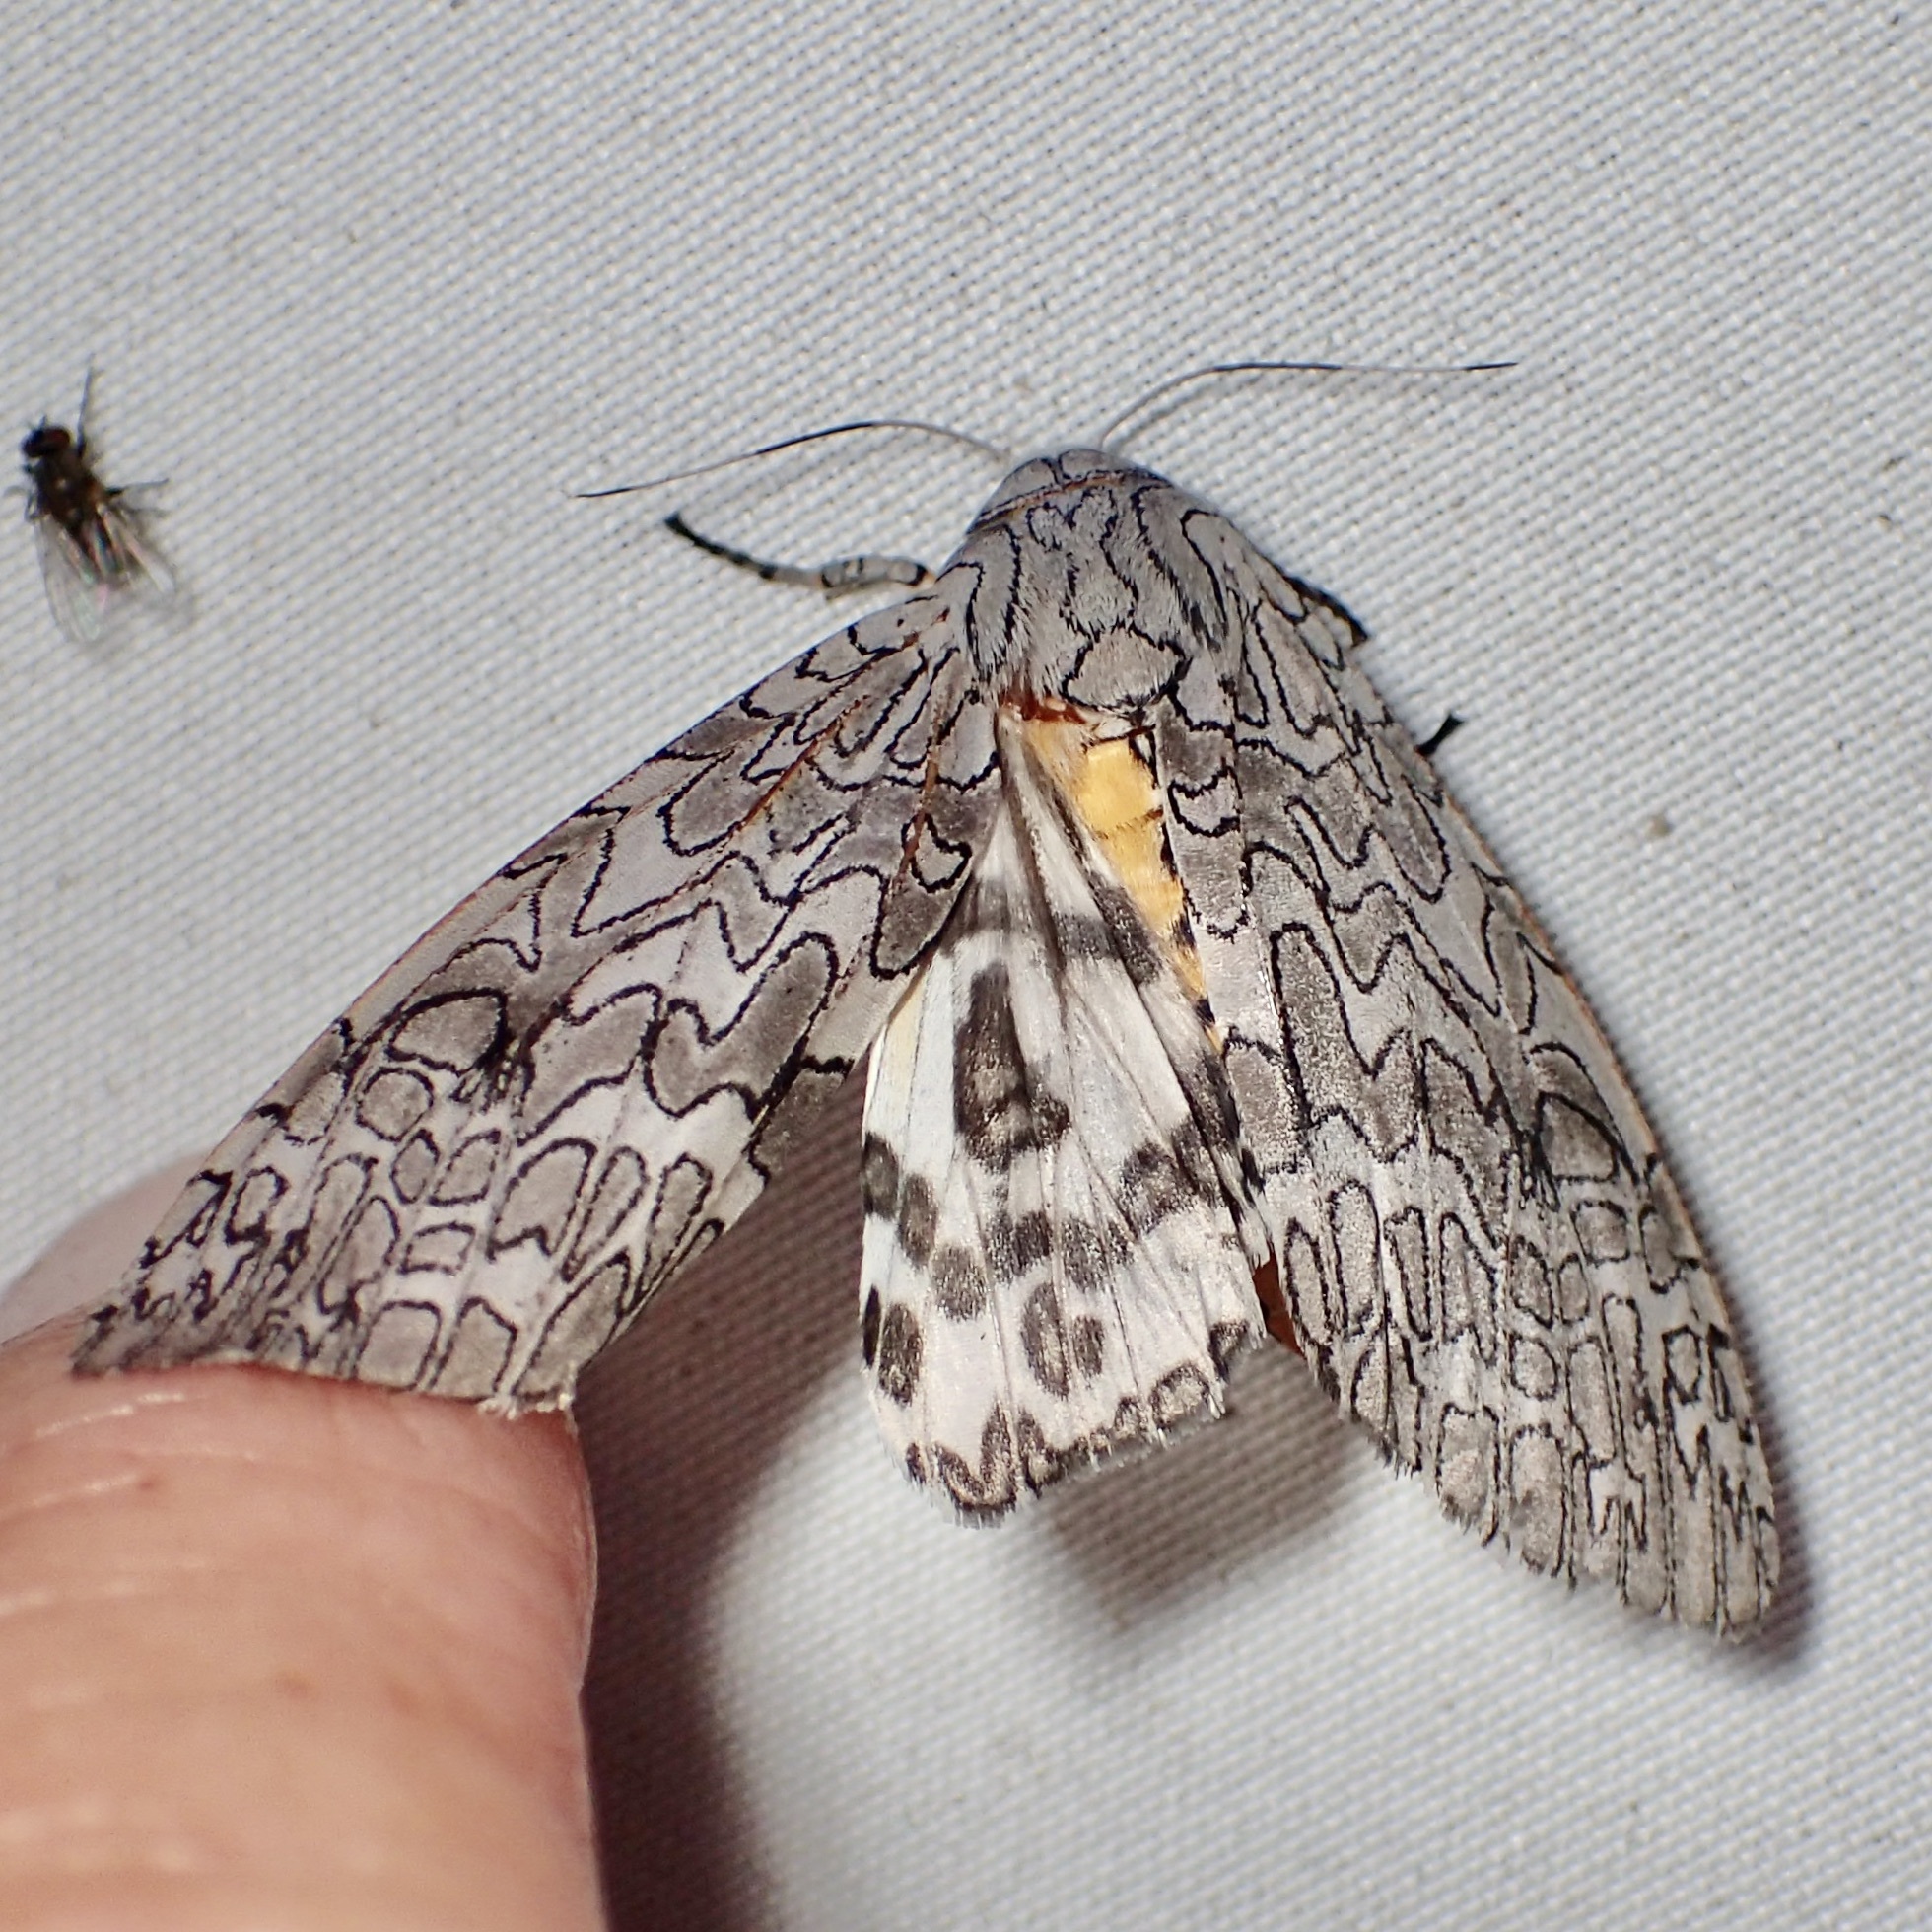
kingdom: Animalia
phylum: Arthropoda
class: Insecta
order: Lepidoptera
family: Erebidae
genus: Hypercompe
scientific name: Hypercompe suffusa
